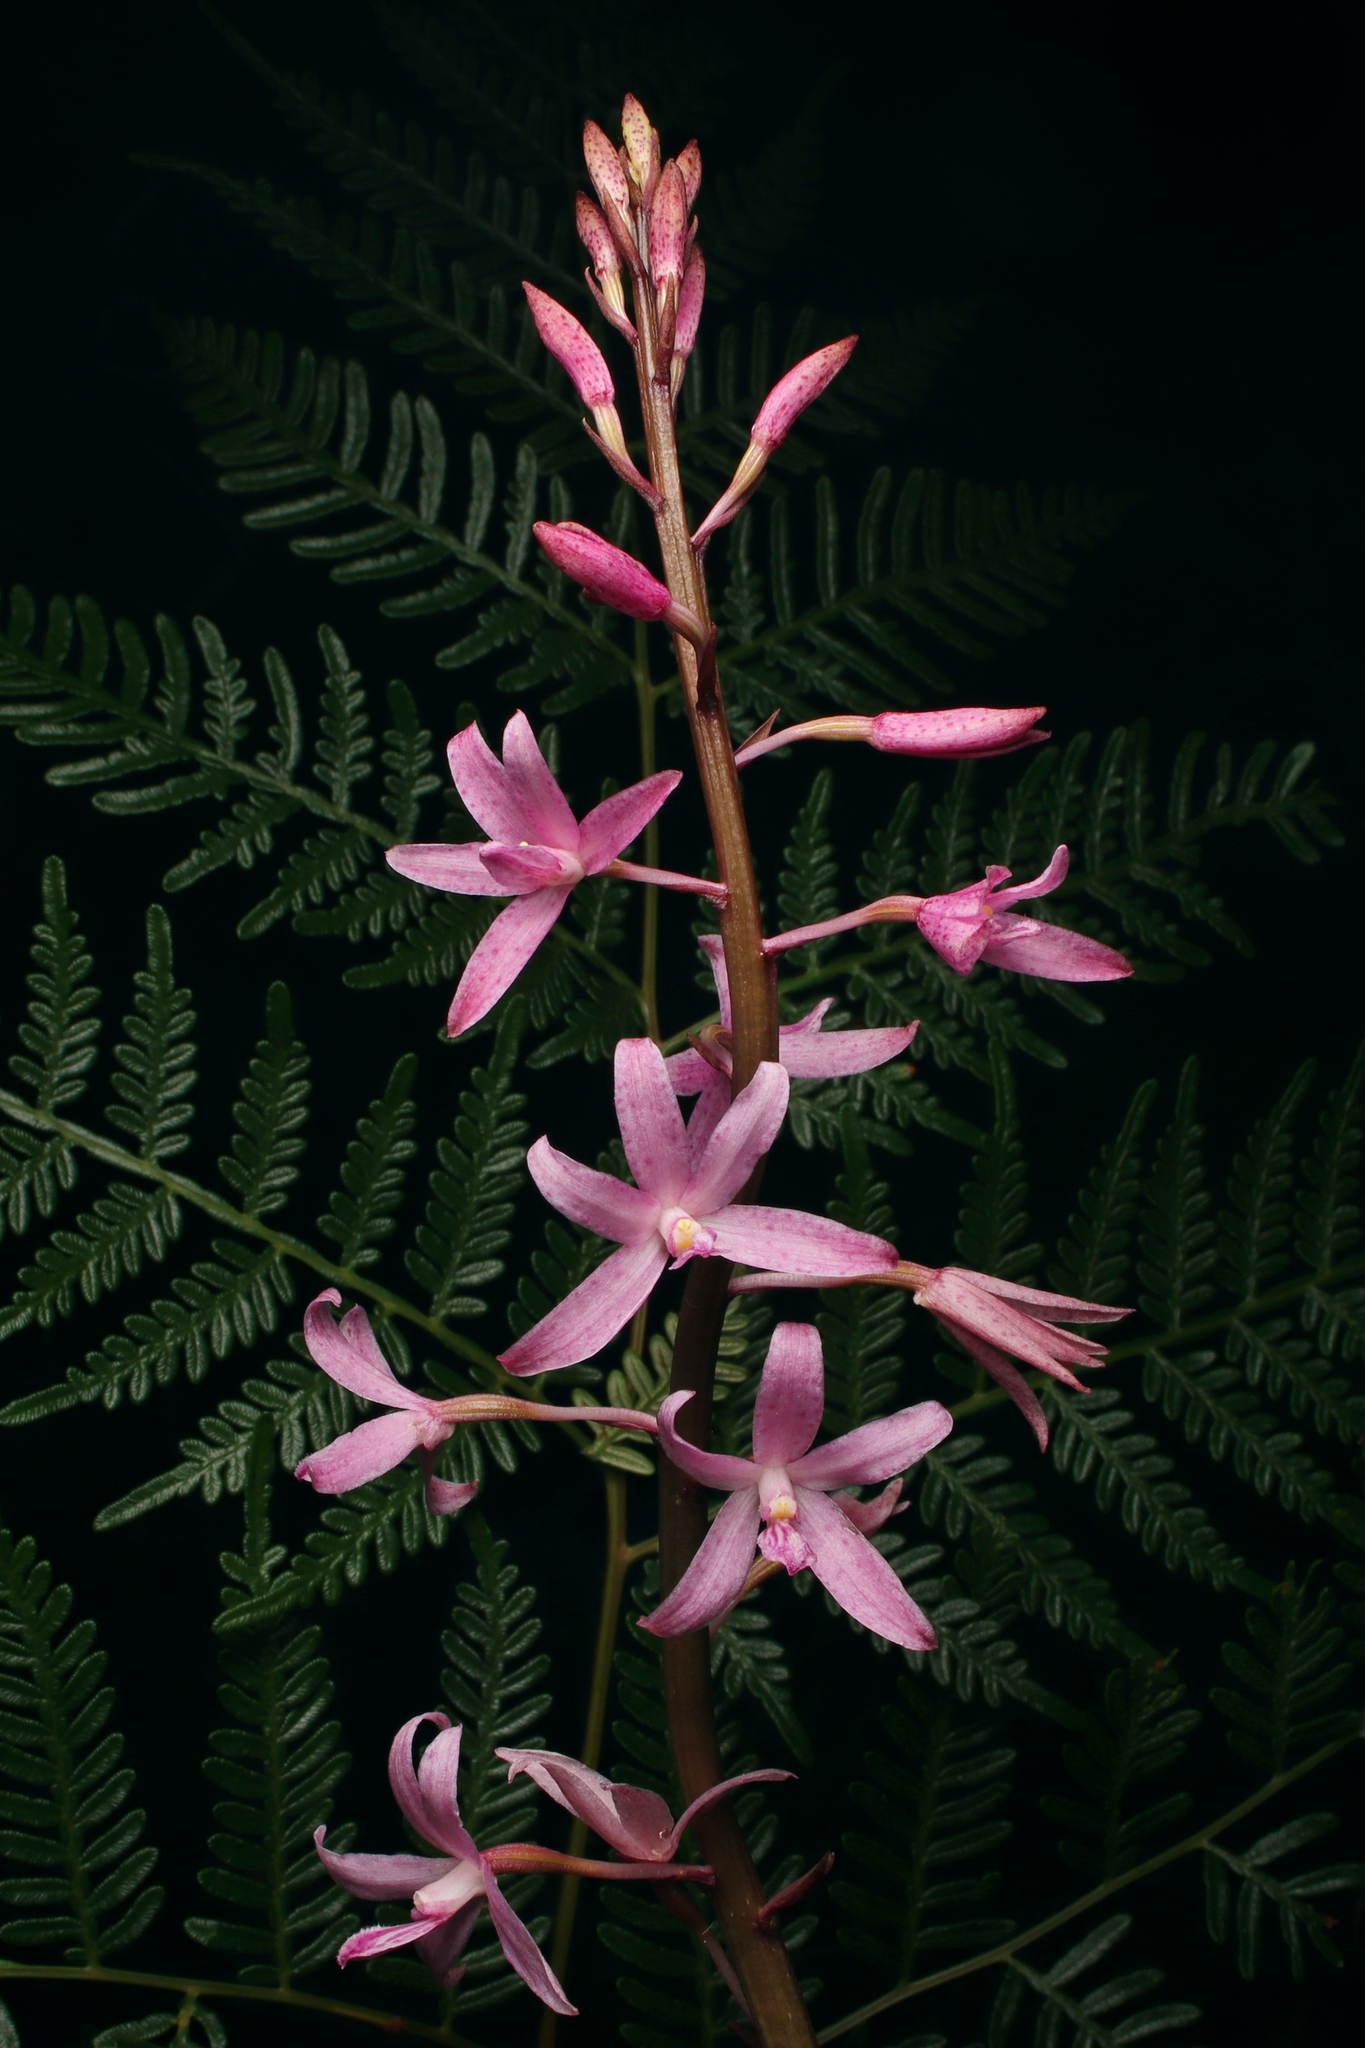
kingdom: Plantae
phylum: Tracheophyta
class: Liliopsida
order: Asparagales
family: Orchidaceae
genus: Dipodium
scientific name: Dipodium roseum
